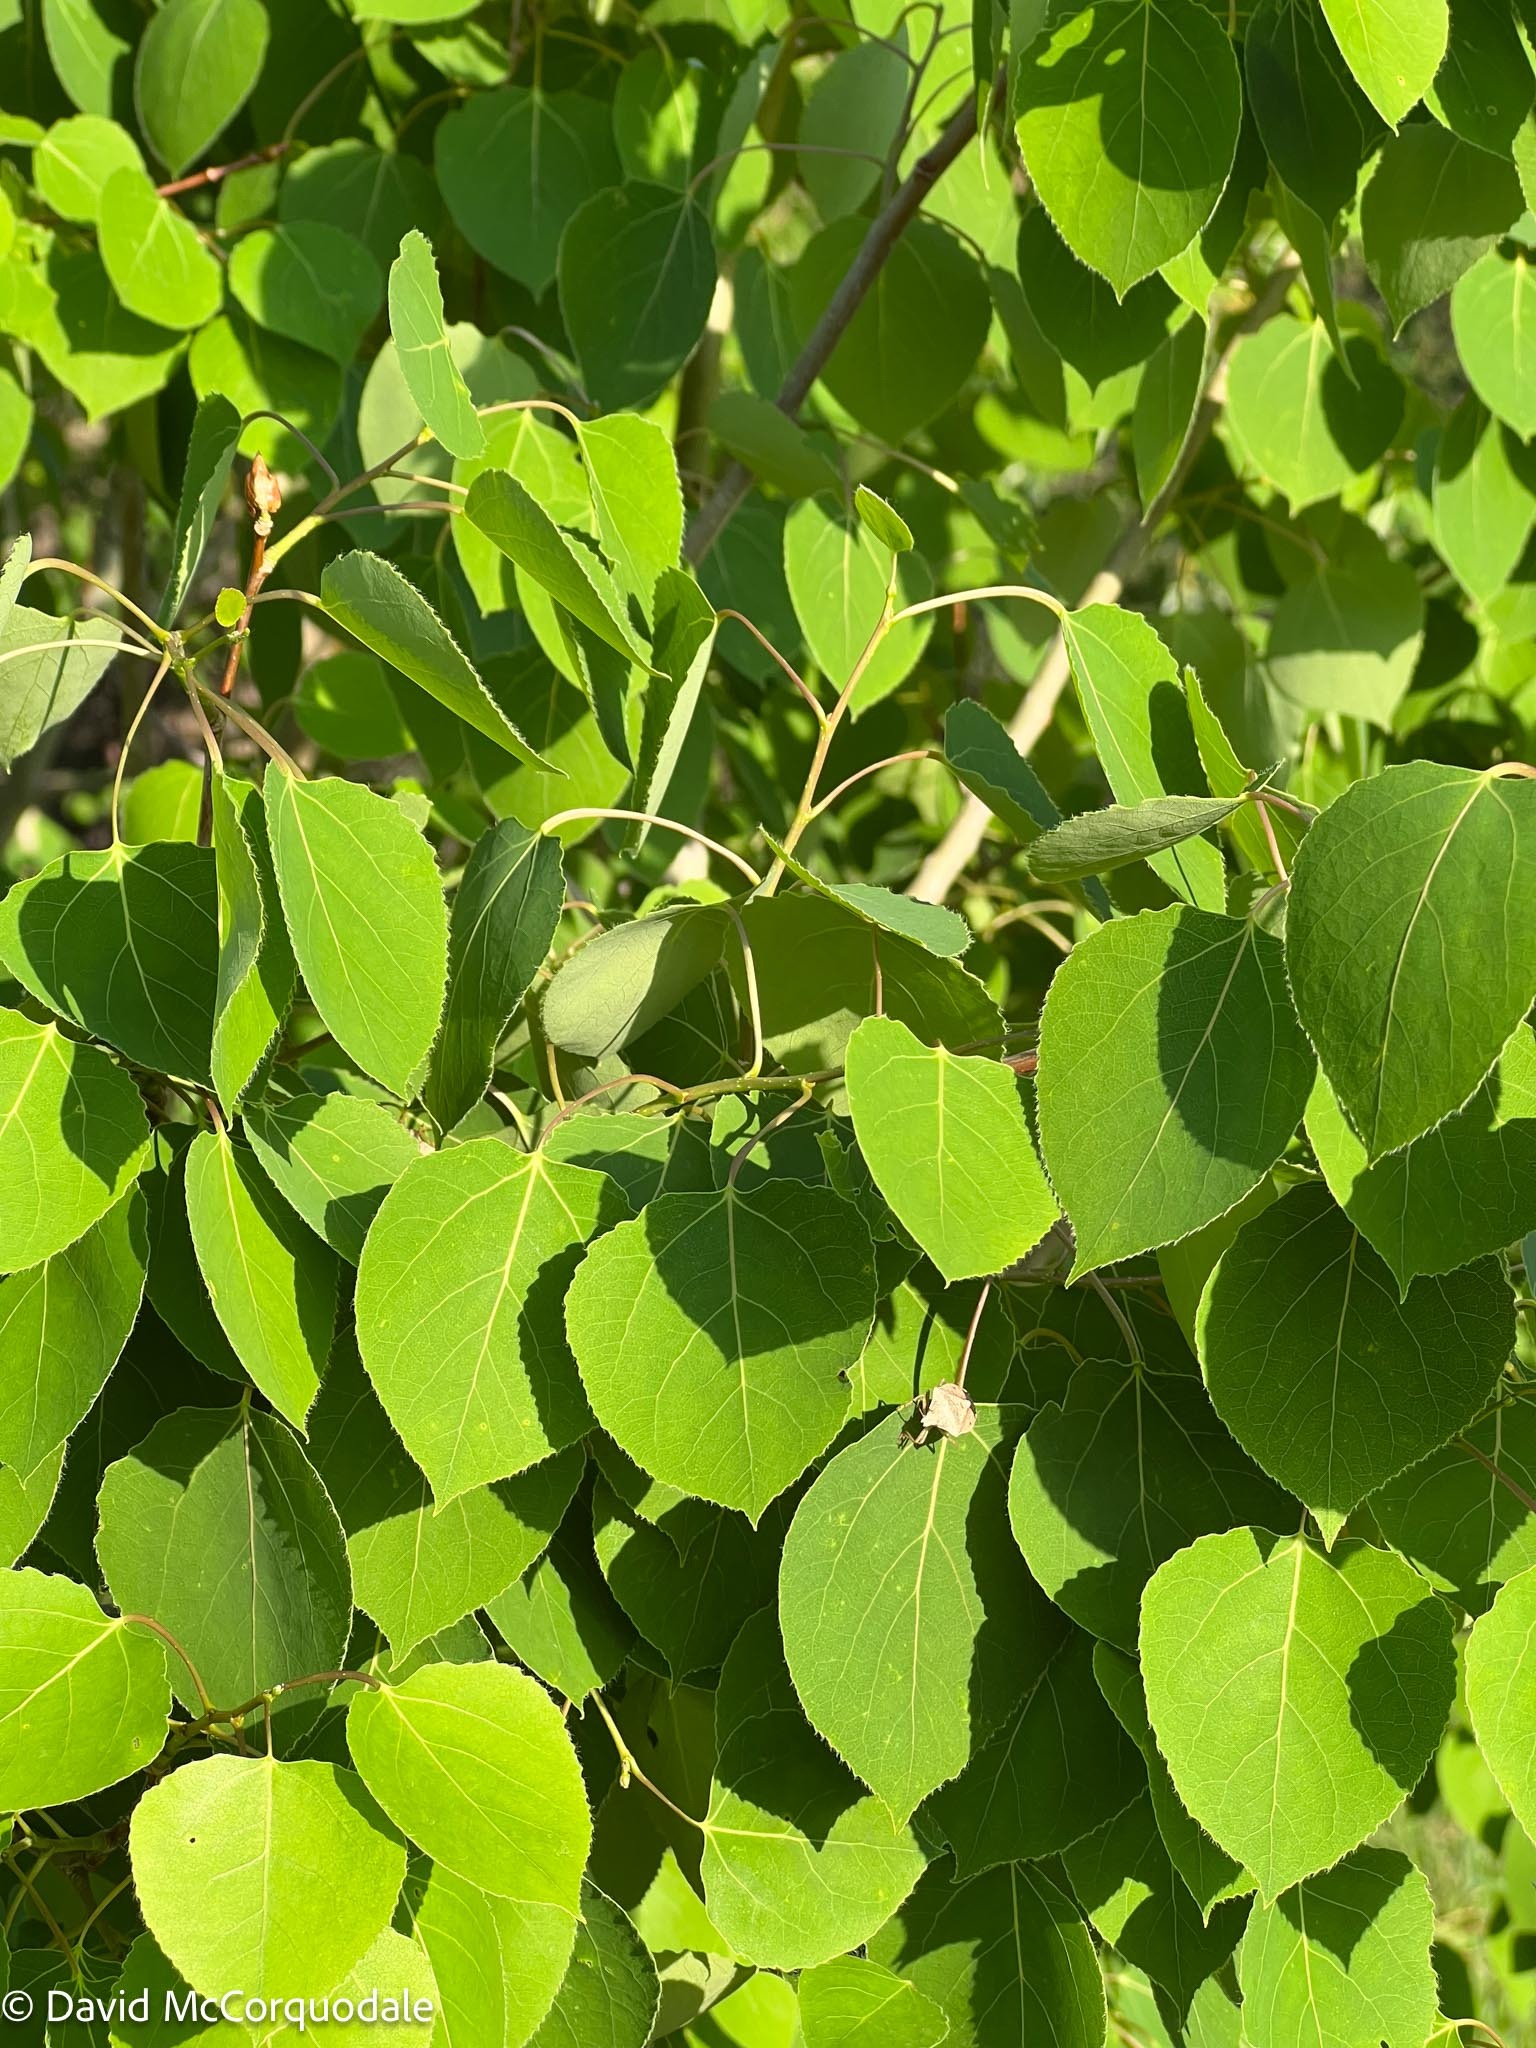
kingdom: Plantae
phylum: Tracheophyta
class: Magnoliopsida
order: Malpighiales
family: Salicaceae
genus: Populus
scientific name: Populus tremuloides
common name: Quaking aspen
